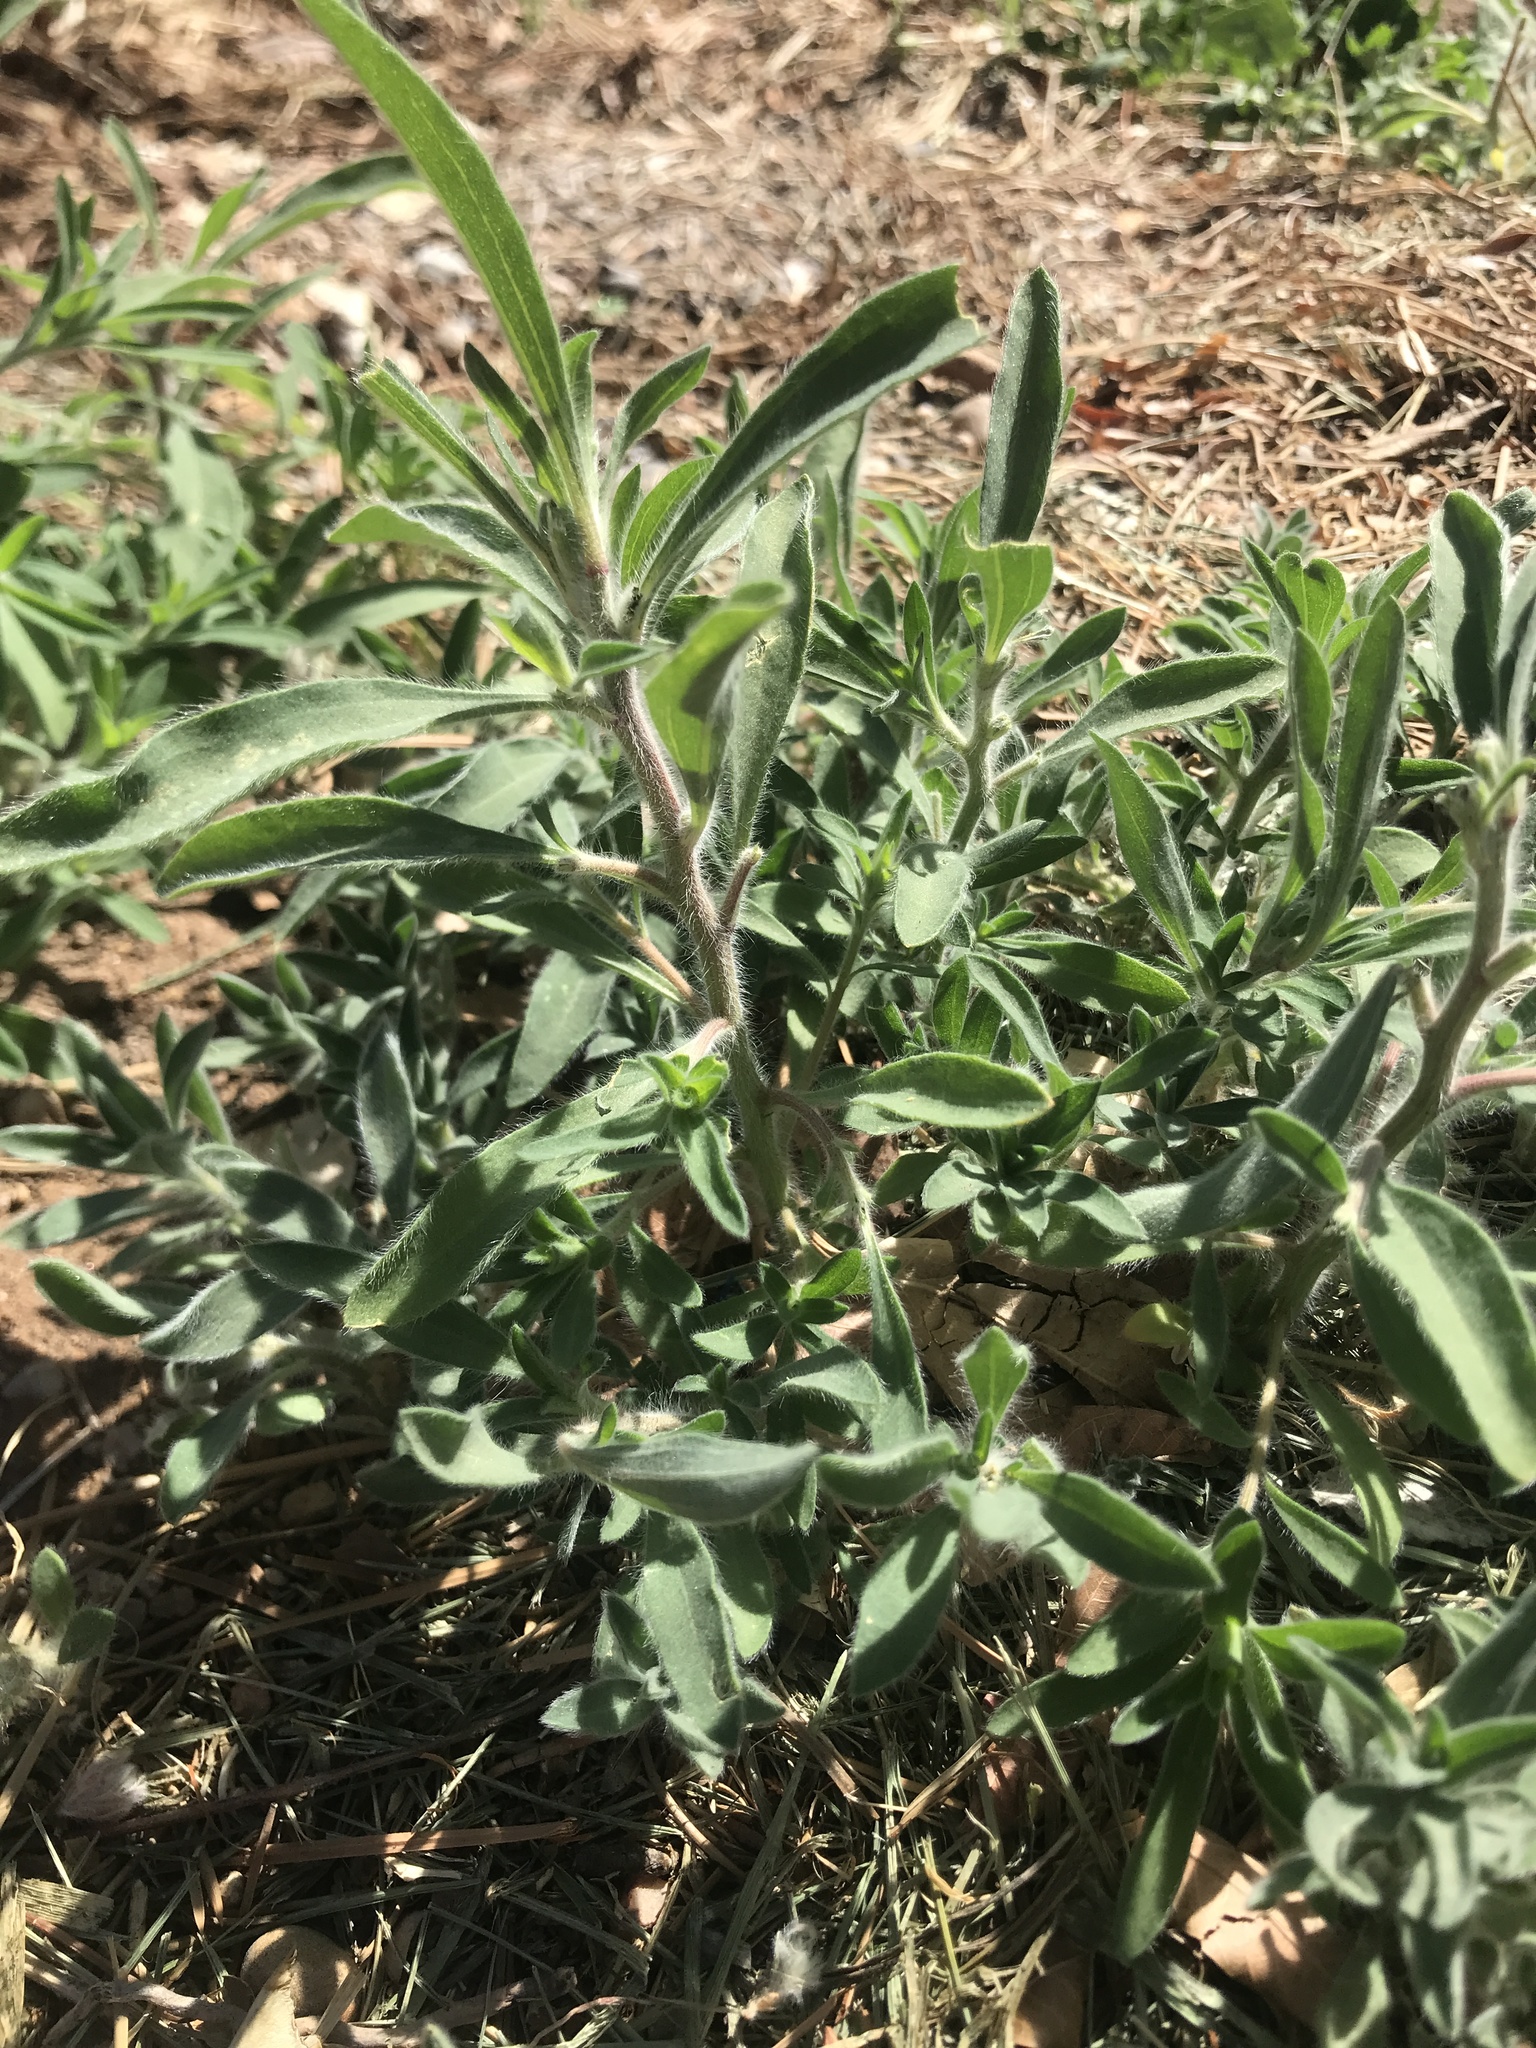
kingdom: Plantae
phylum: Tracheophyta
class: Magnoliopsida
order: Caryophyllales
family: Amaranthaceae
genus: Bassia
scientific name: Bassia scoparia
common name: Belvedere
